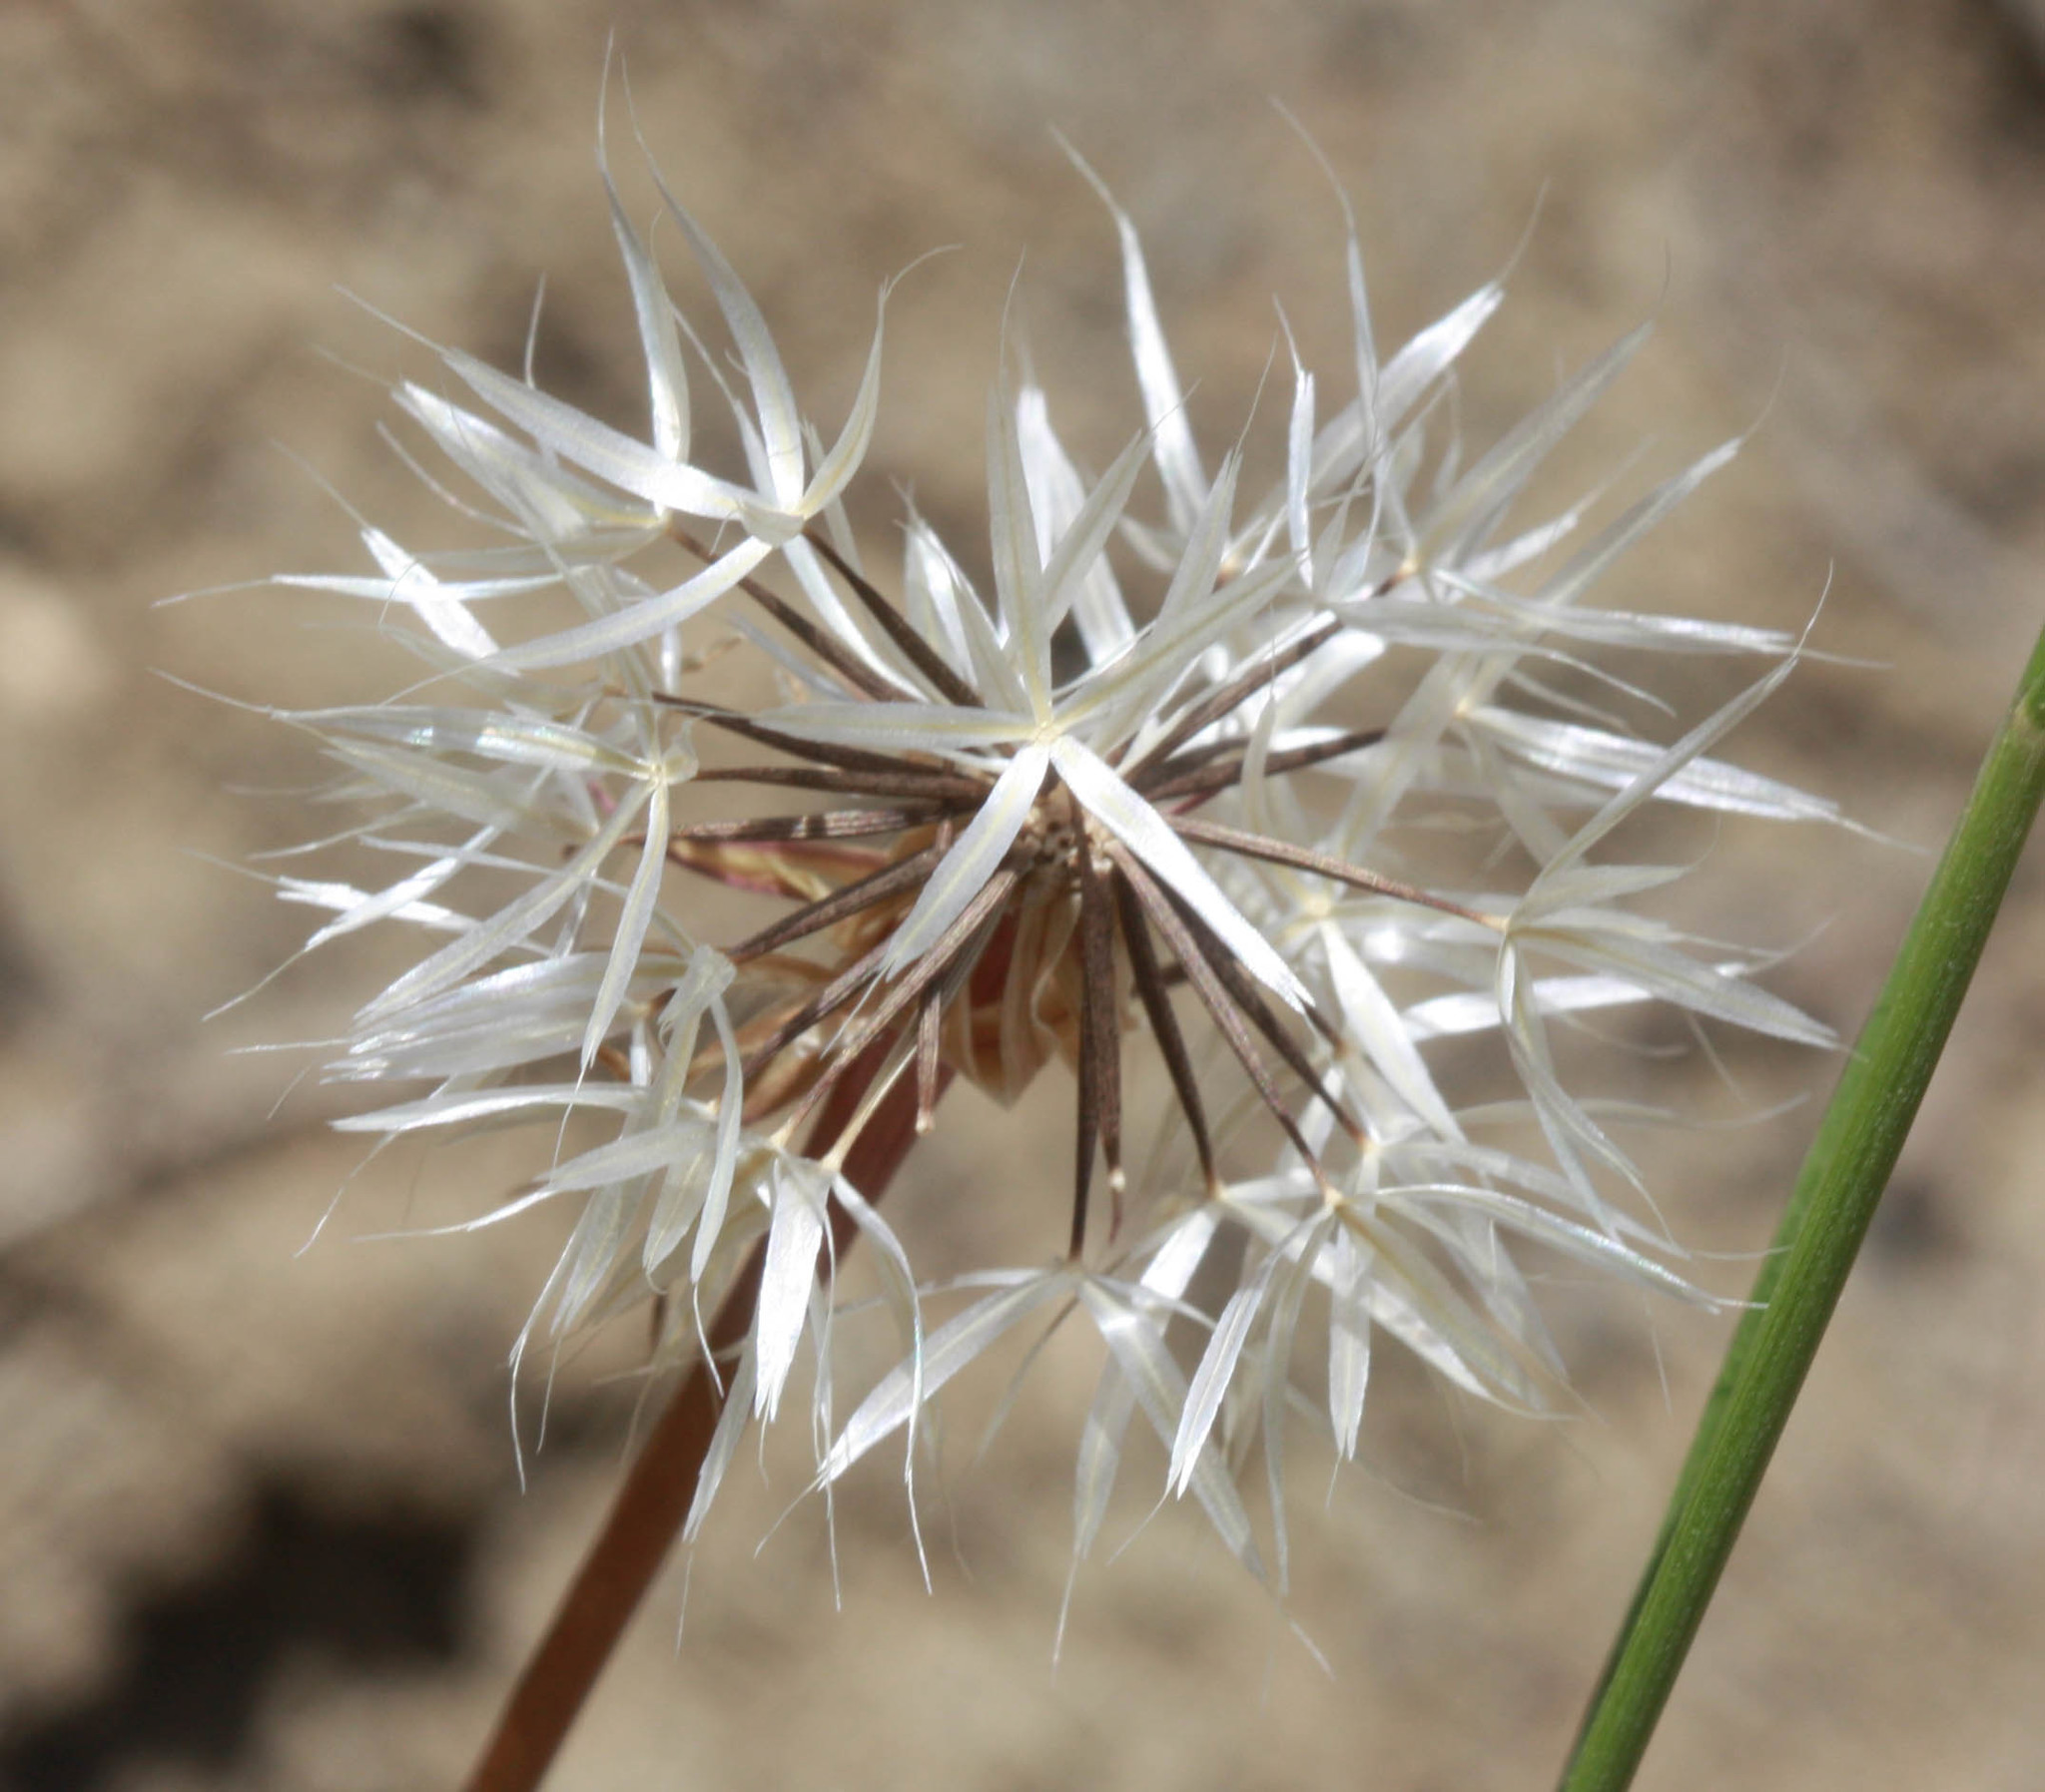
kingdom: Plantae
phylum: Tracheophyta
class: Magnoliopsida
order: Asterales
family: Asteraceae
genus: Microseris
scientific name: Microseris lindleyi
